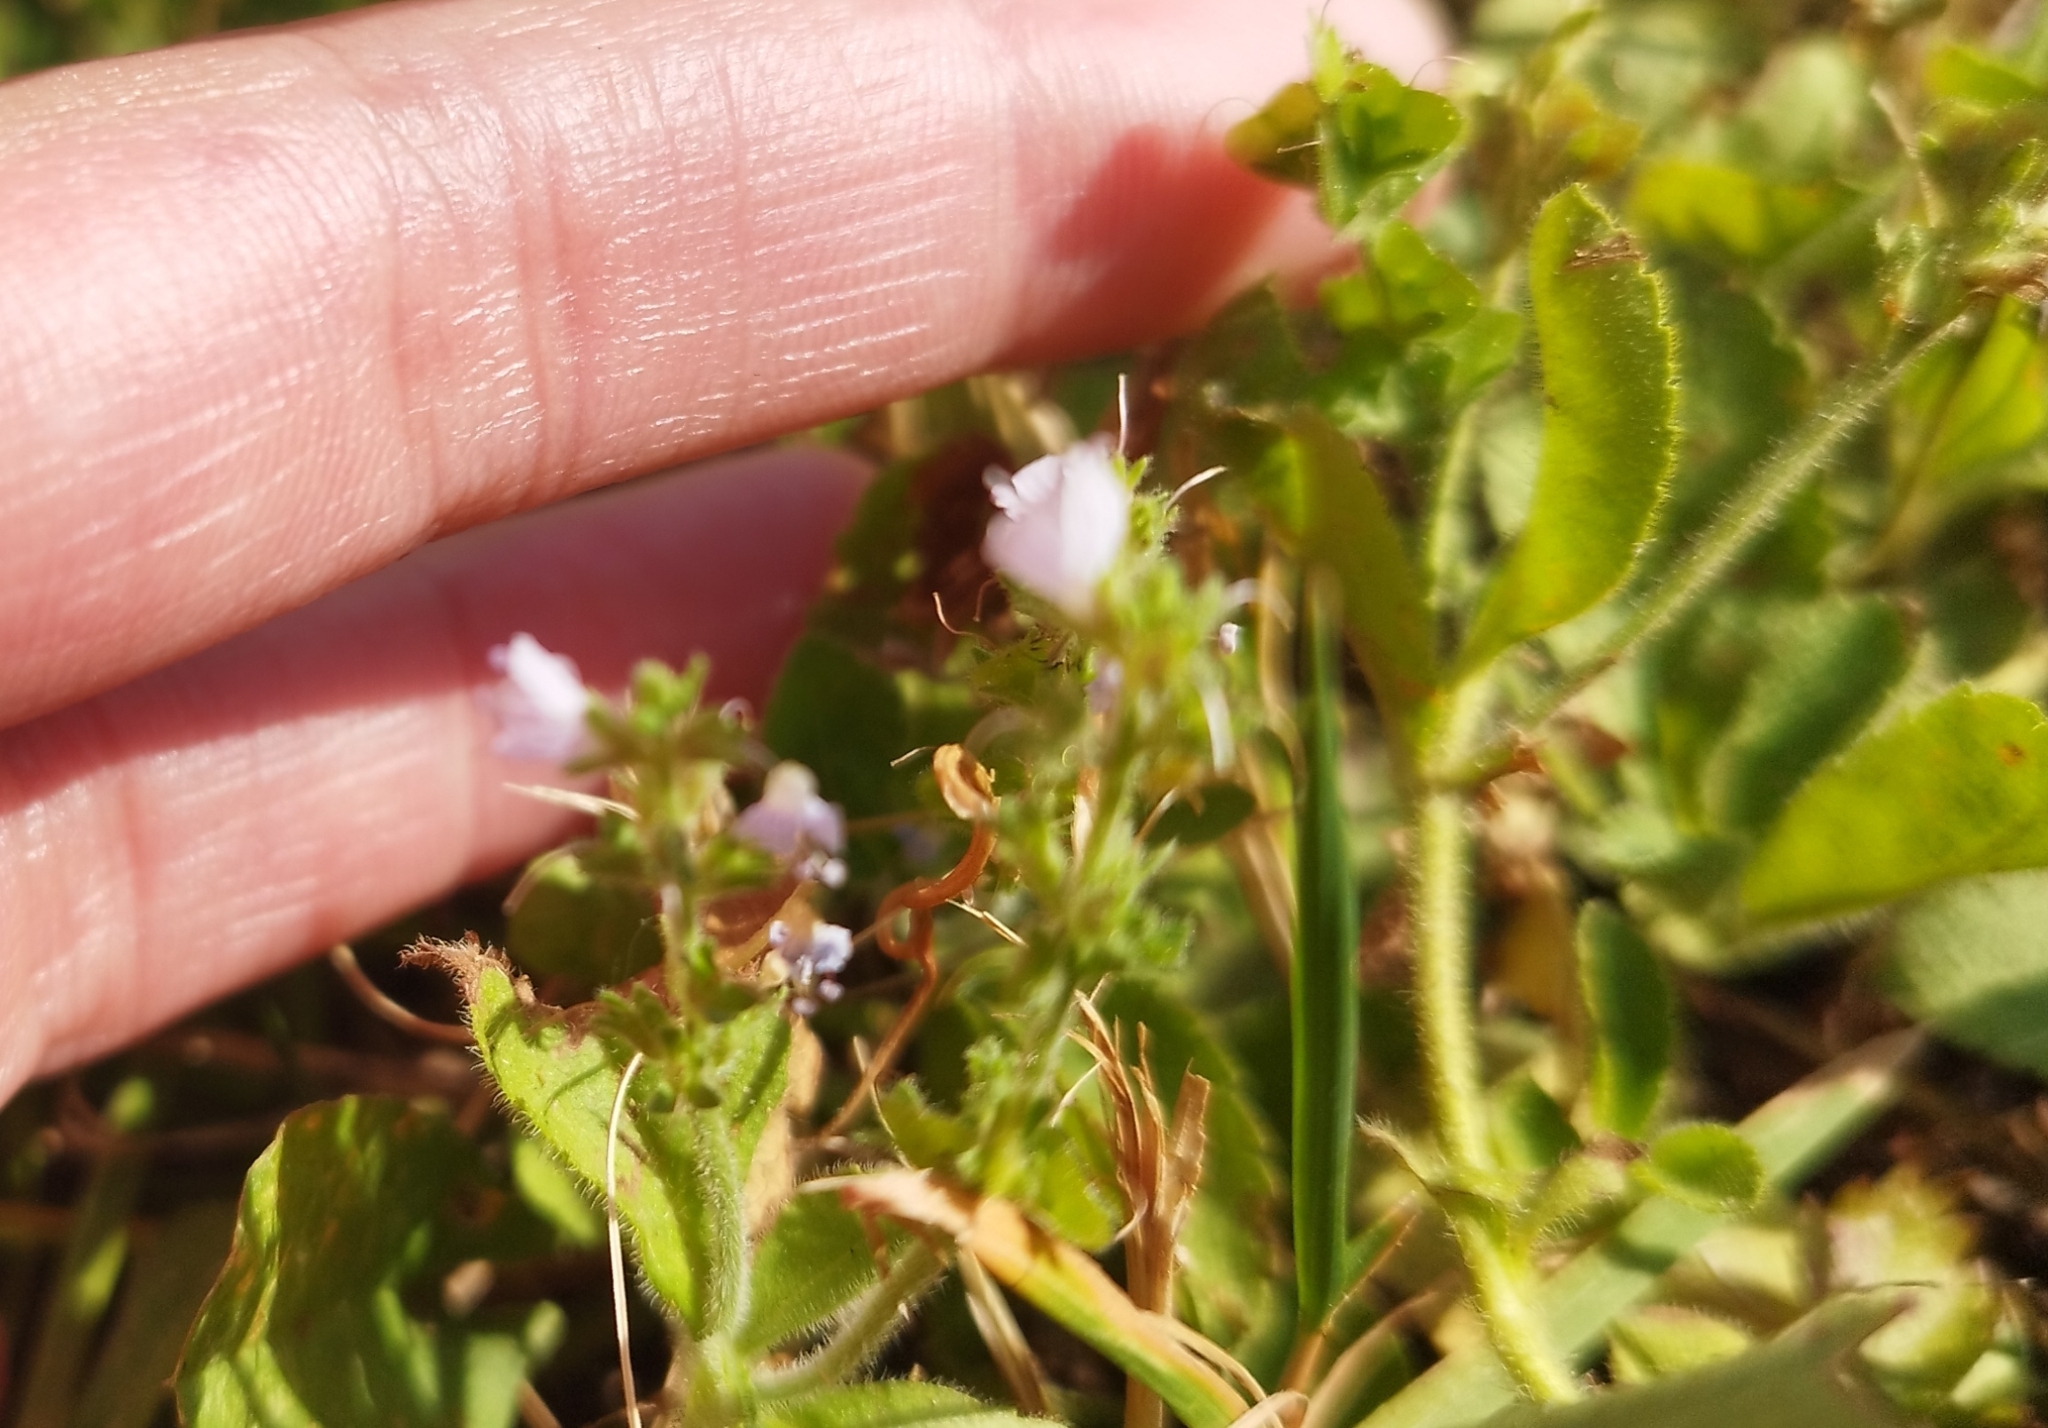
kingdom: Plantae
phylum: Tracheophyta
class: Magnoliopsida
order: Lamiales
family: Plantaginaceae
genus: Veronica
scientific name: Veronica officinalis
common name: Common speedwell
